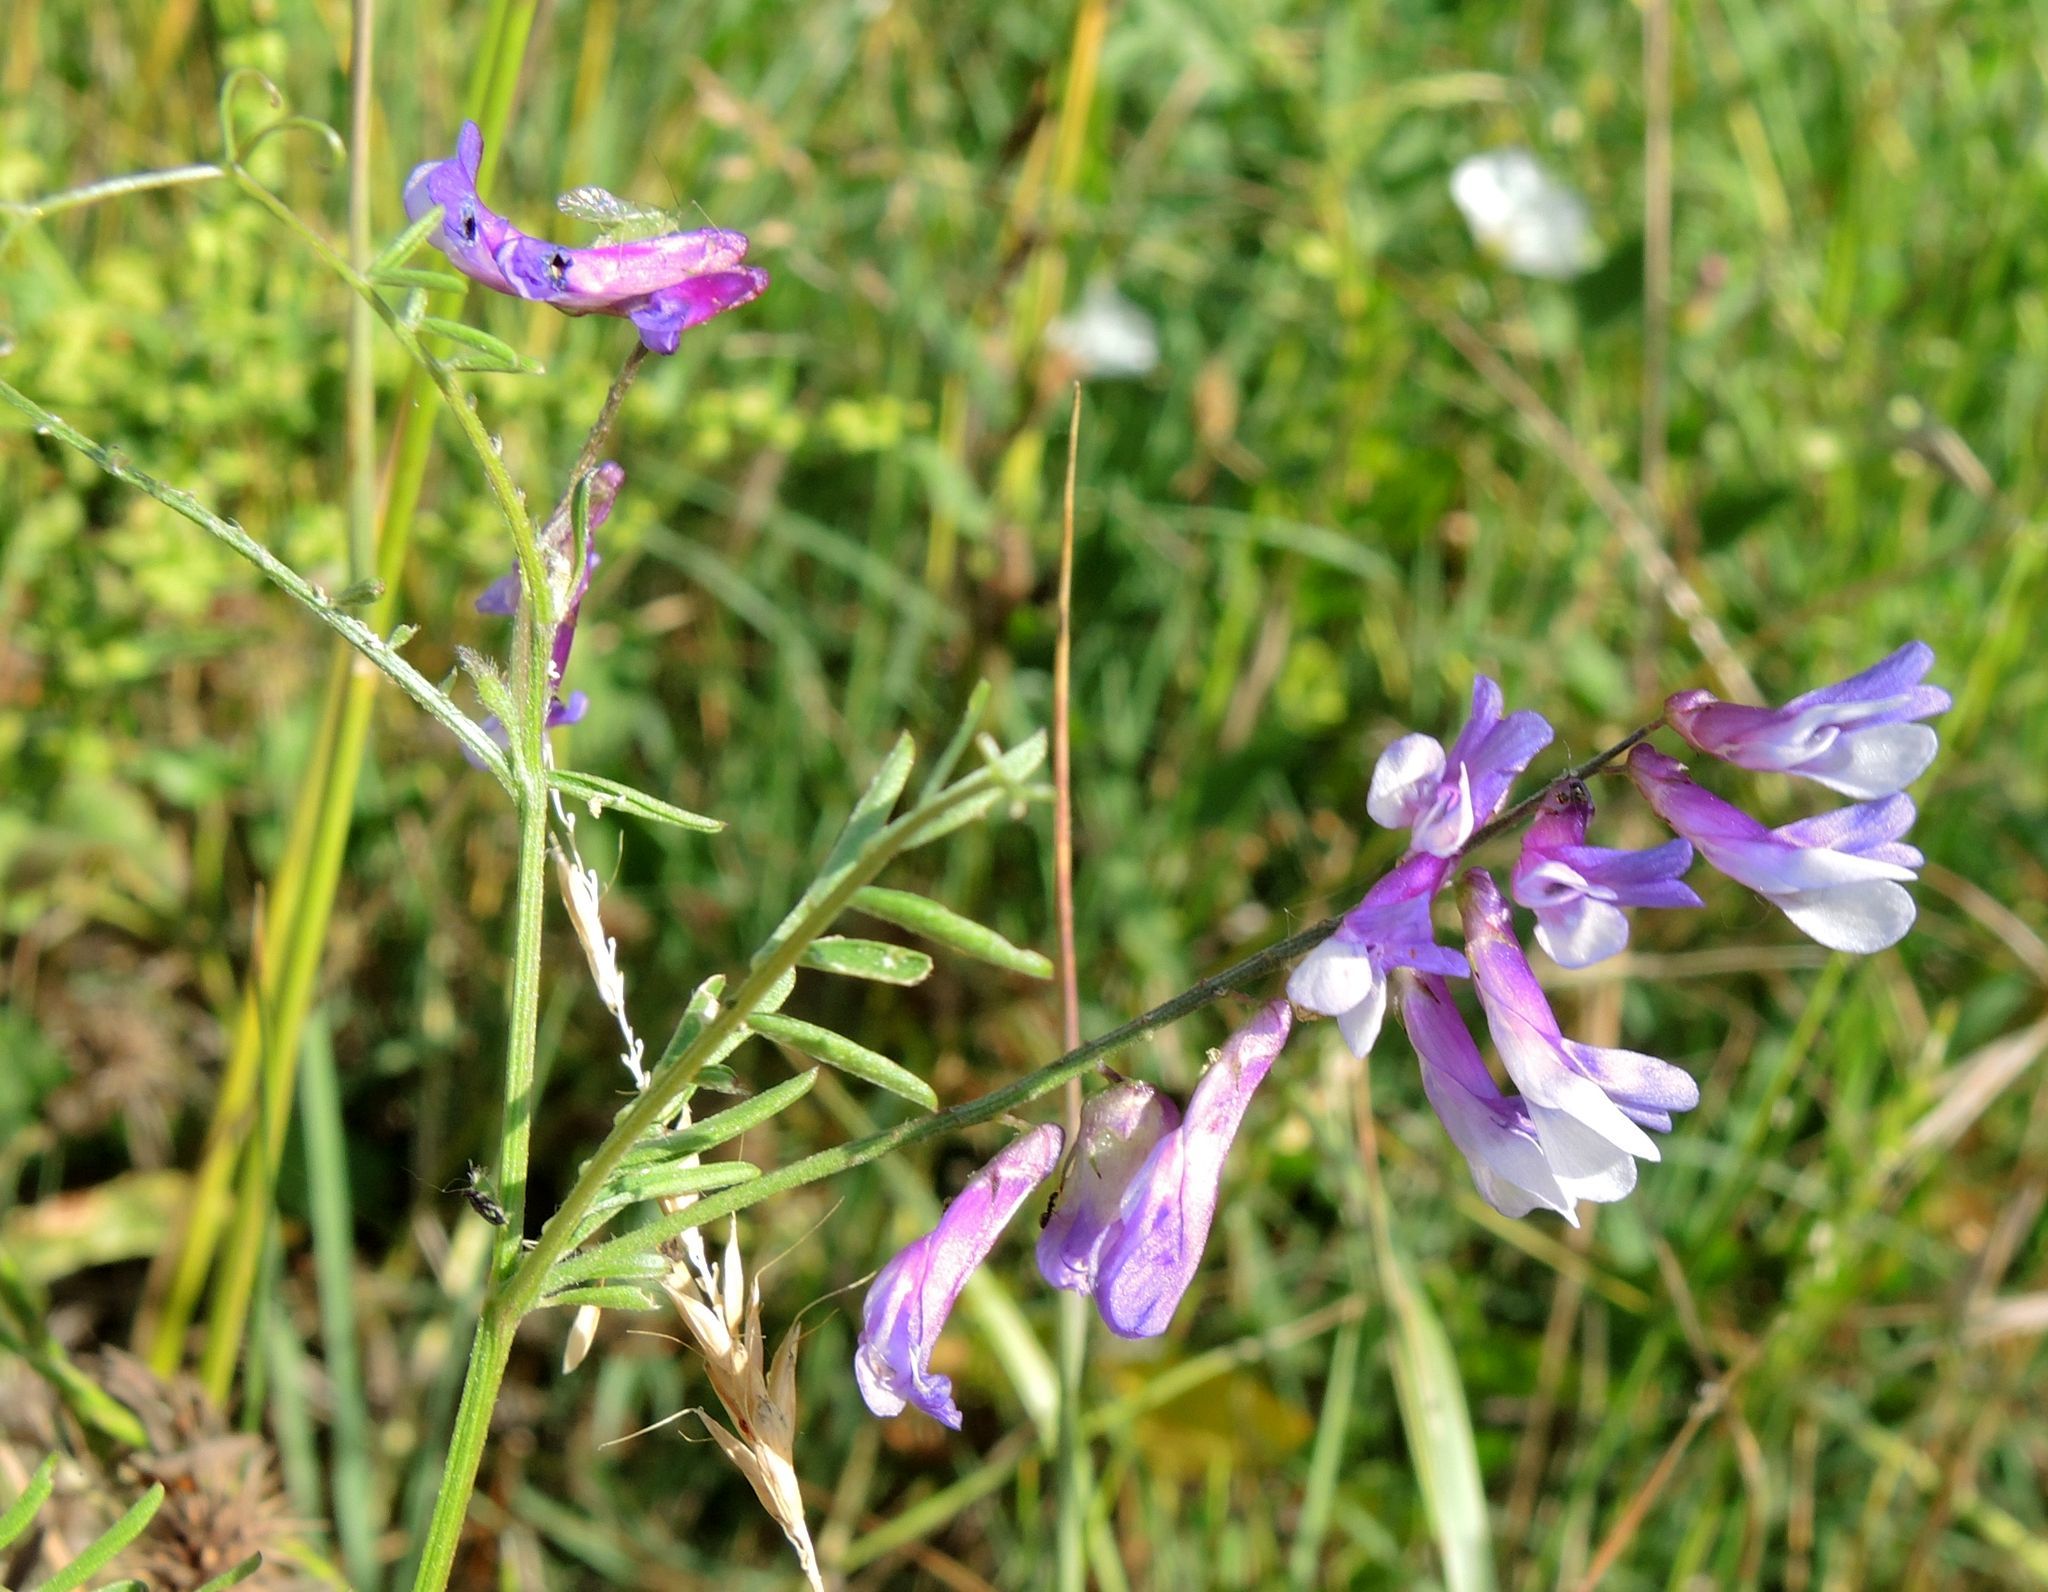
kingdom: Plantae
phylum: Tracheophyta
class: Magnoliopsida
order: Fabales
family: Fabaceae
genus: Vicia
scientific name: Vicia villosa
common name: Fodder vetch
